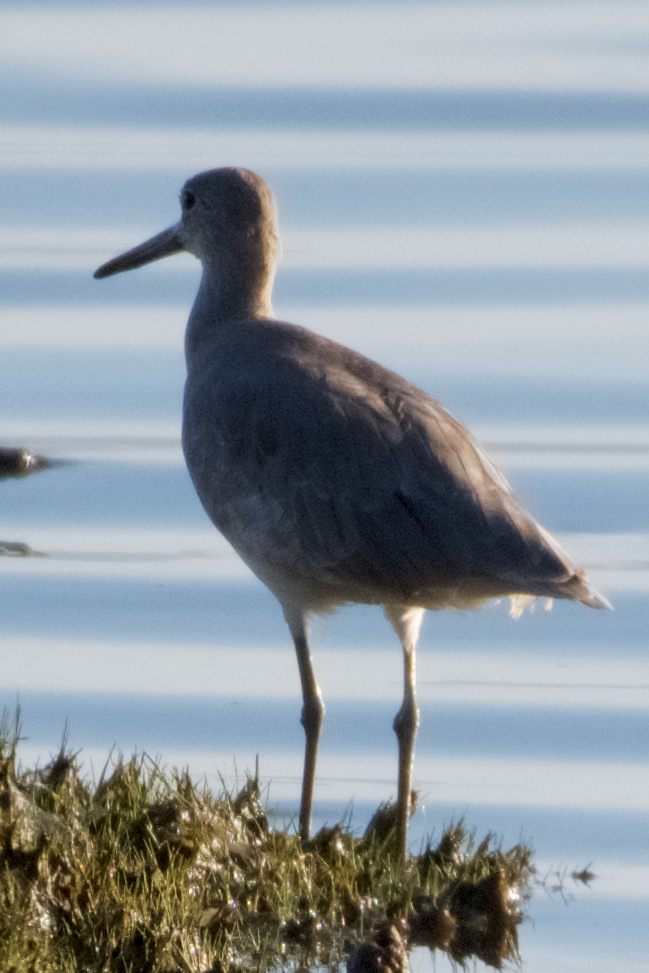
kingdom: Animalia
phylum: Chordata
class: Aves
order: Charadriiformes
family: Scolopacidae
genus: Tringa
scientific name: Tringa semipalmata
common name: Willet
